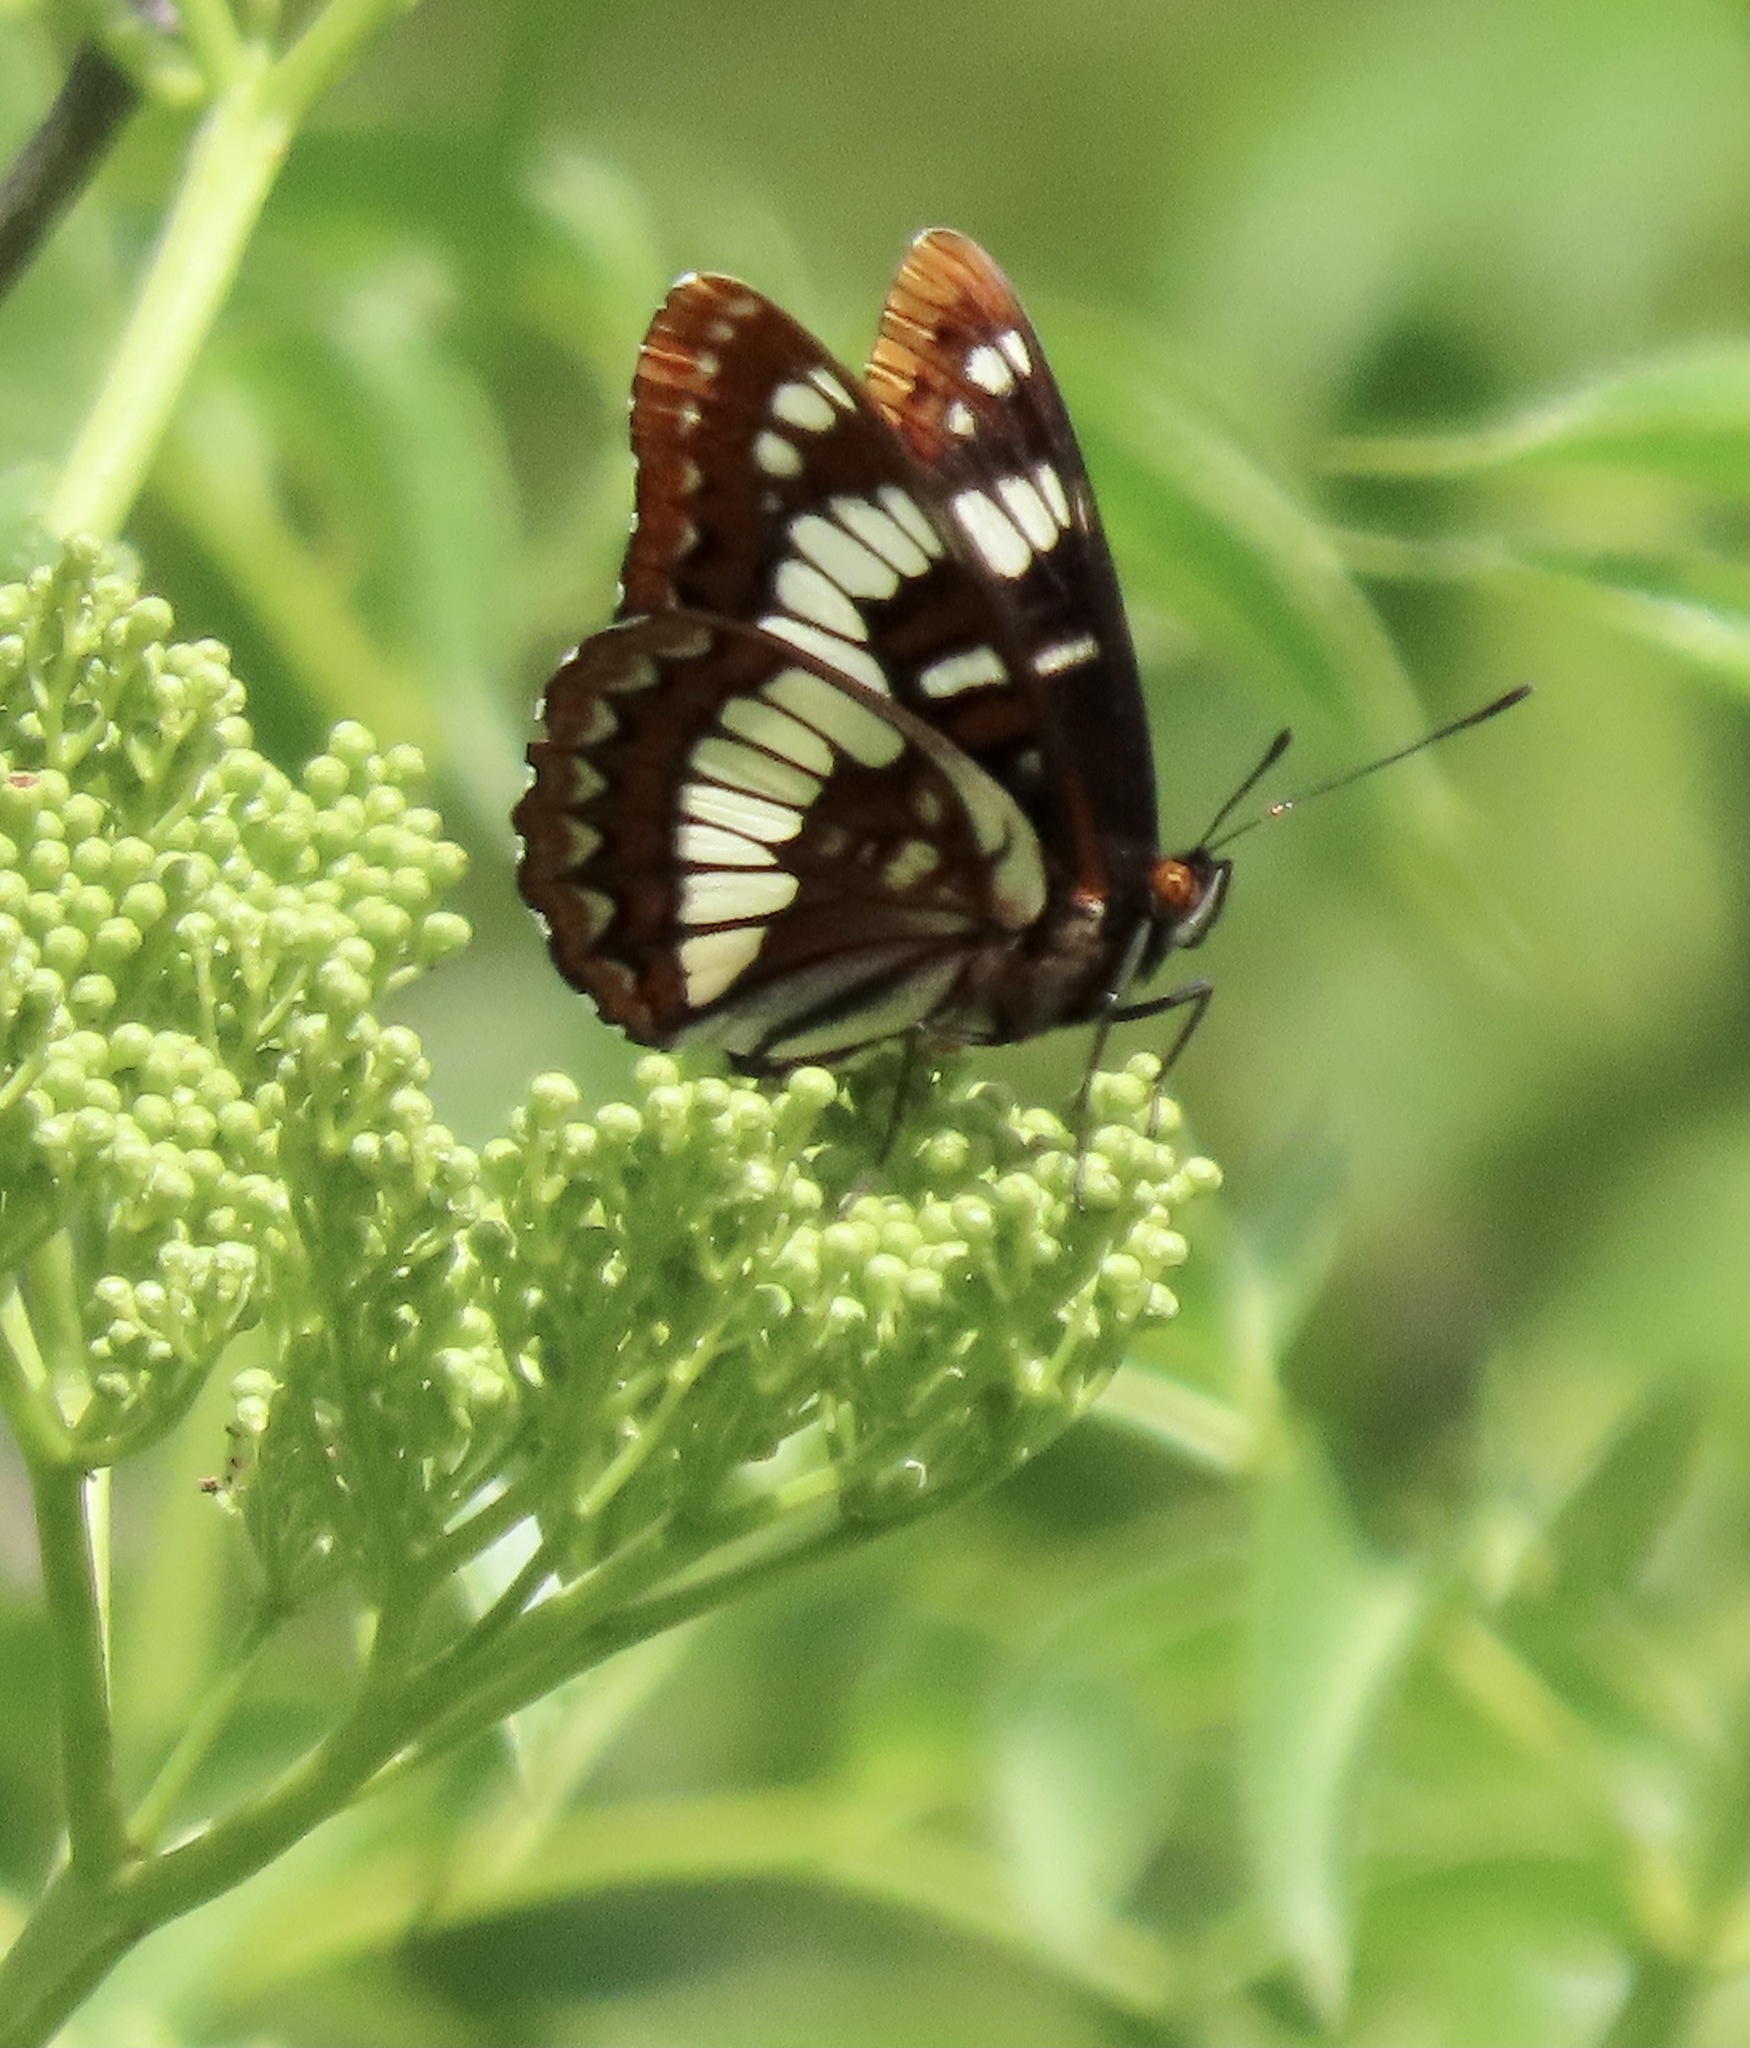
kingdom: Animalia
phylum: Arthropoda
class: Insecta
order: Lepidoptera
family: Nymphalidae
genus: Limenitis
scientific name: Limenitis lorquini
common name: Lorquin's admiral
